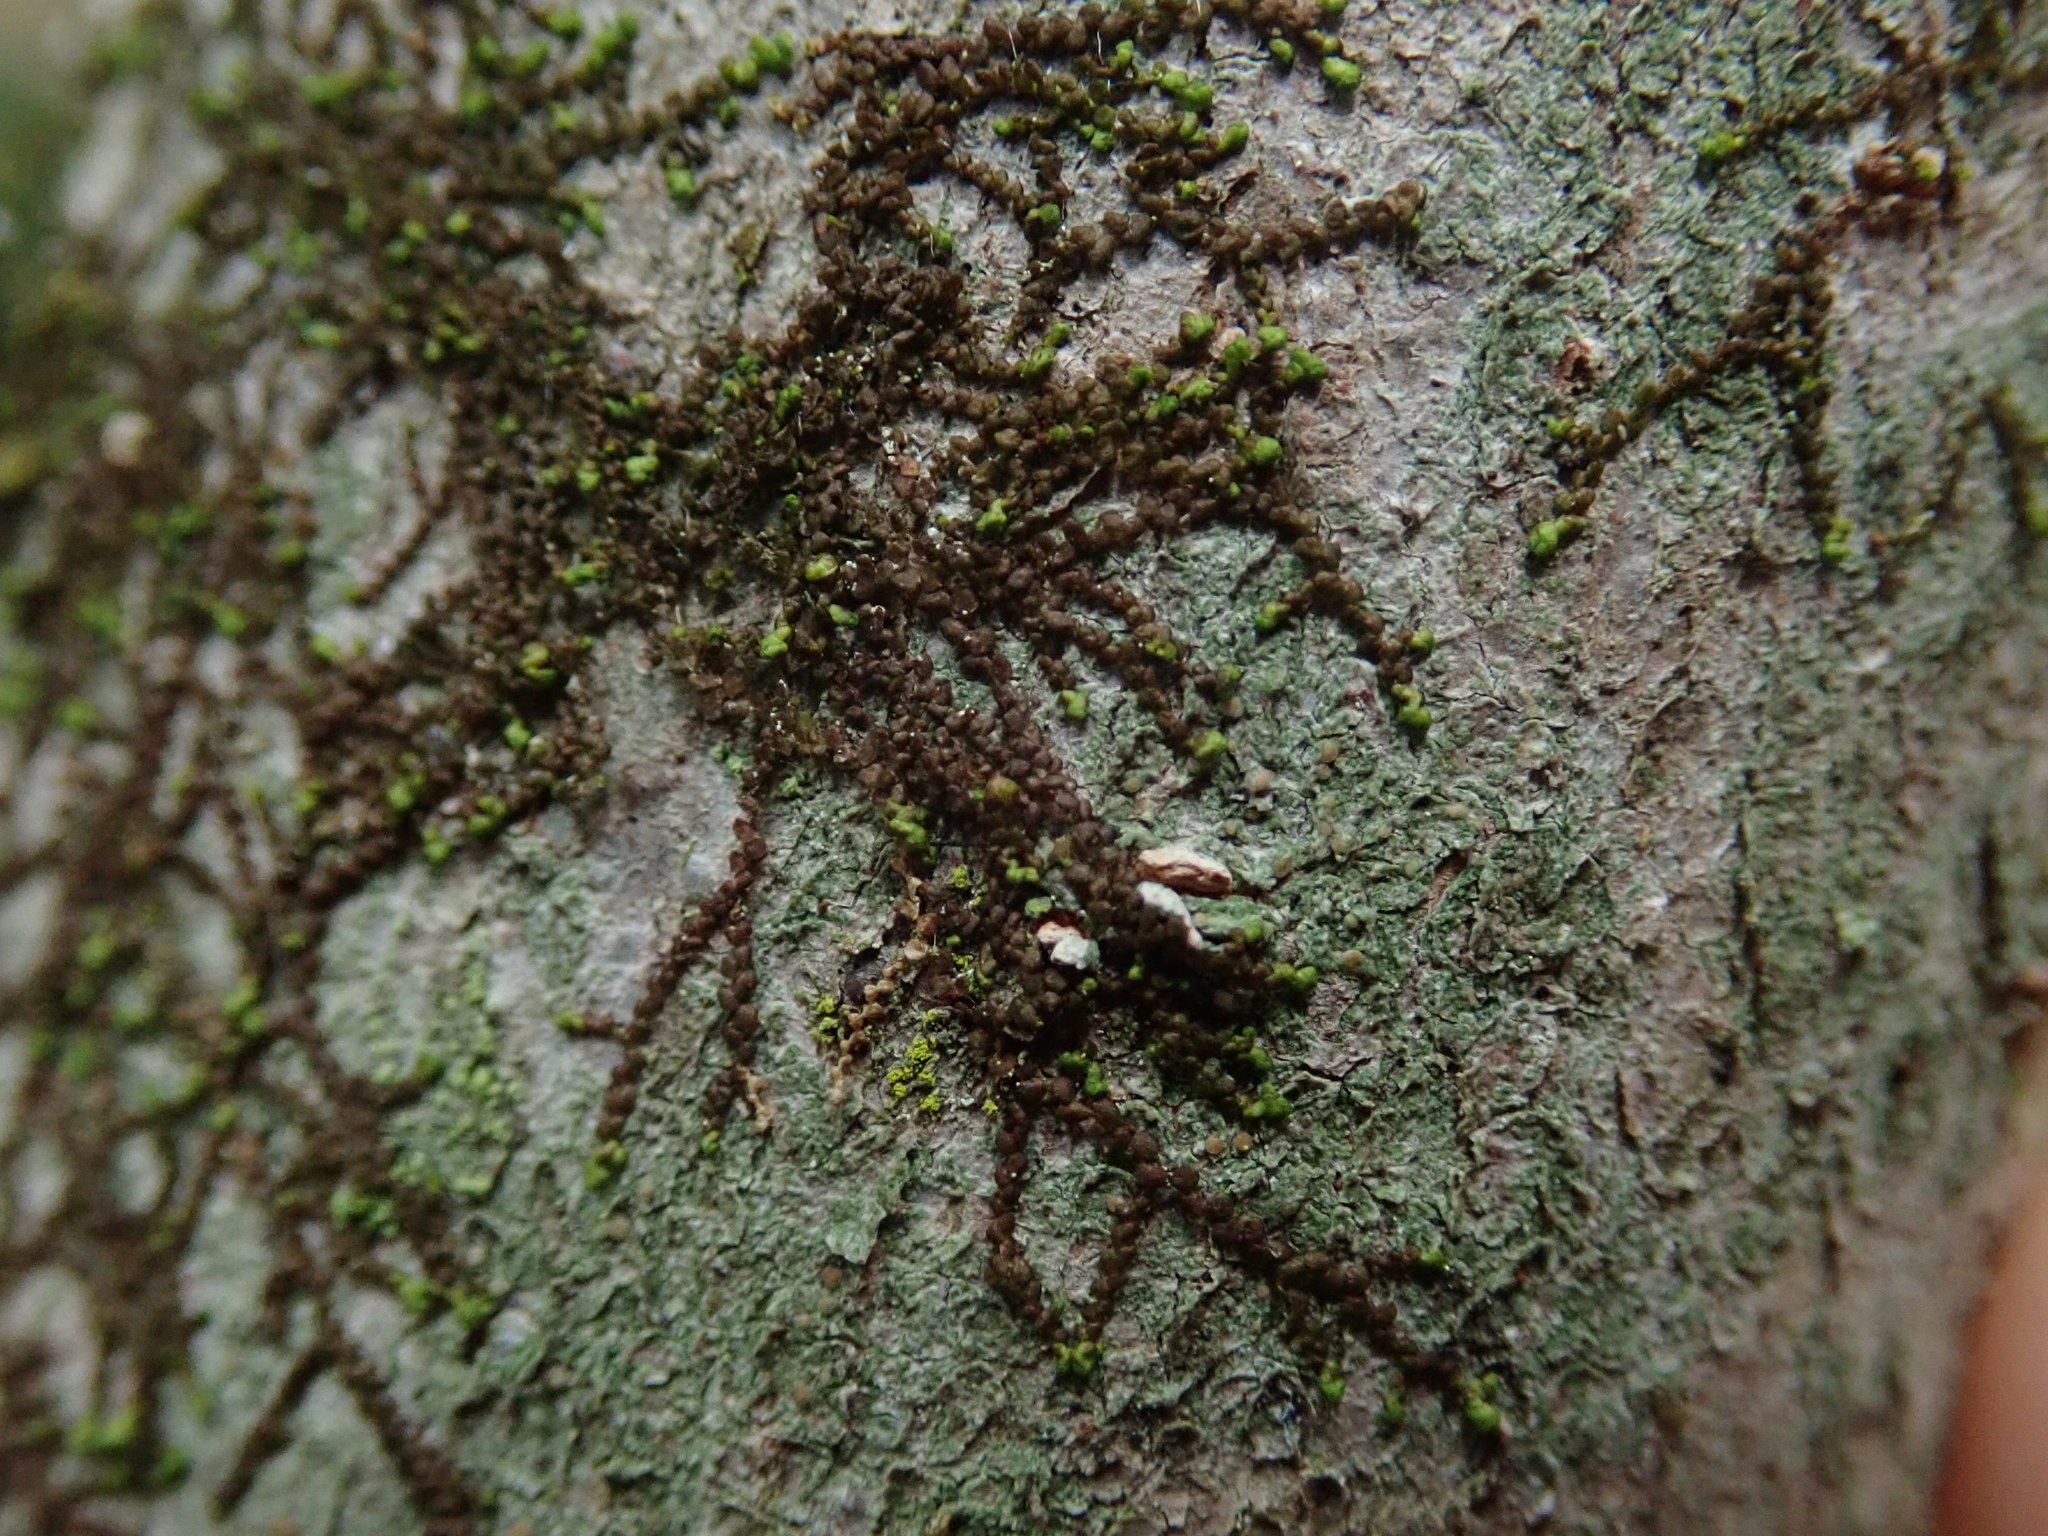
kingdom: Plantae
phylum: Marchantiophyta
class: Jungermanniopsida
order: Porellales
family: Frullaniaceae
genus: Frullania
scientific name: Frullania
